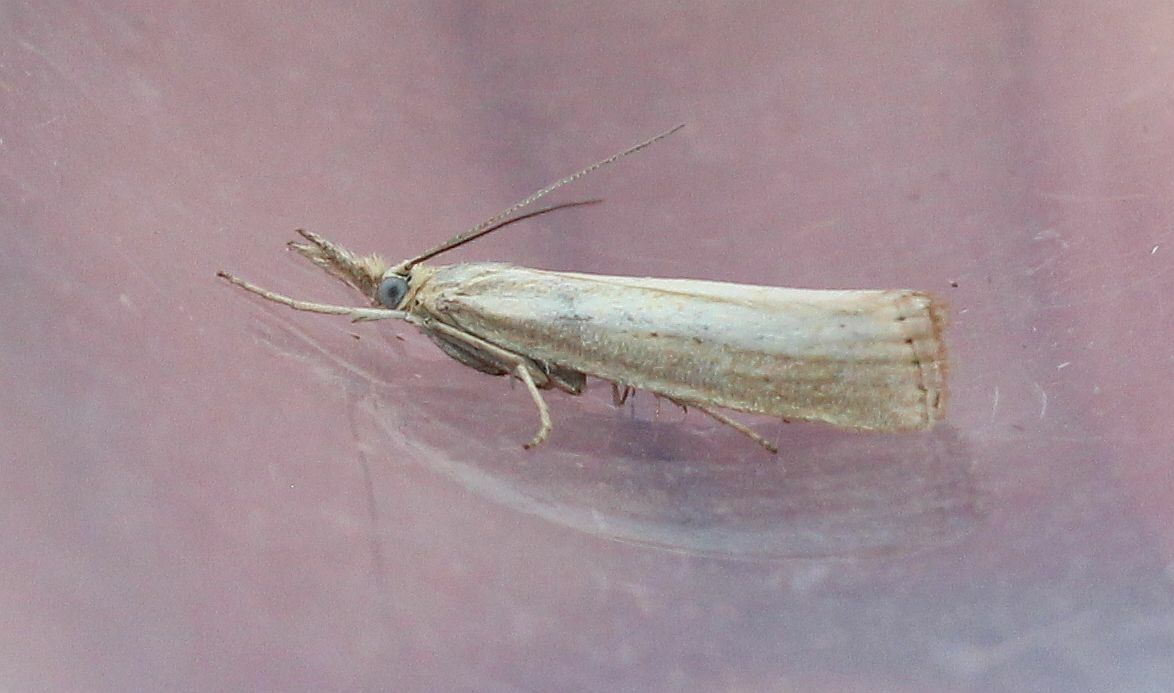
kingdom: Animalia
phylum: Arthropoda
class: Insecta
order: Lepidoptera
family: Crambidae
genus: Agriphila
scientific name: Agriphila straminella
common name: Straw grass-veneer
